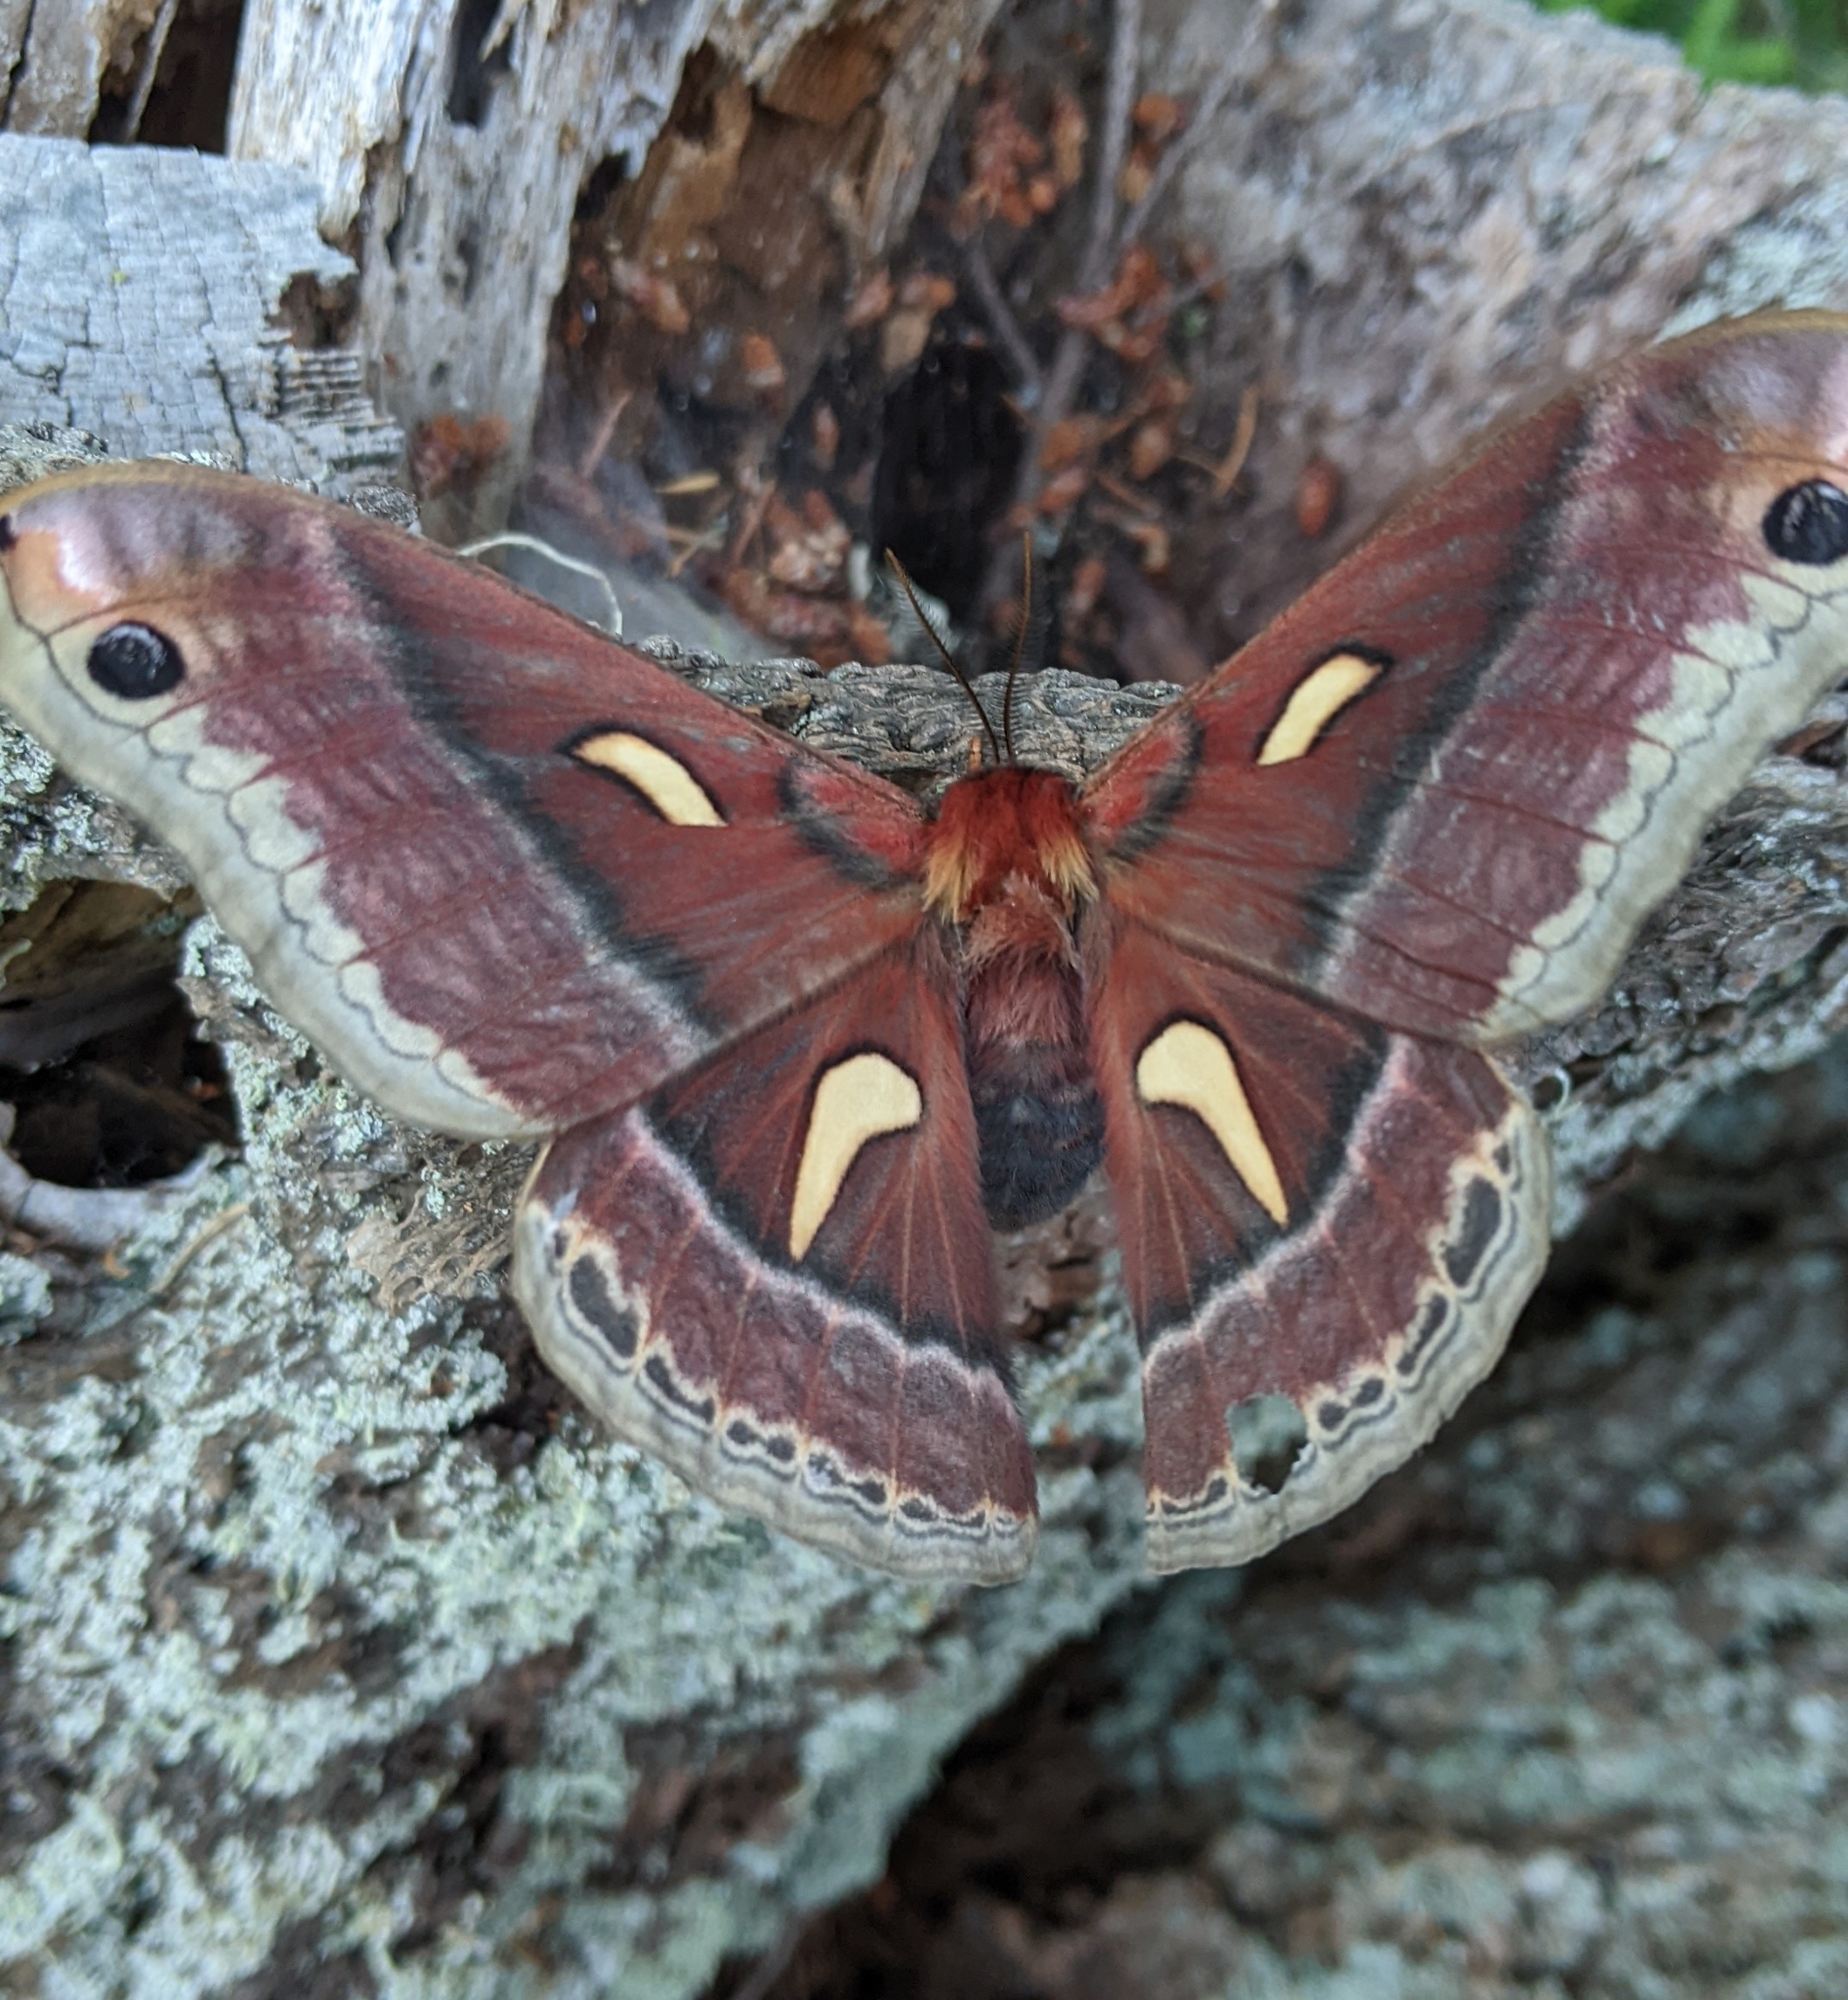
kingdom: Animalia
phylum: Arthropoda
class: Insecta
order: Lepidoptera
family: Saturniidae
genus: Hyalophora
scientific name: Hyalophora euryalus
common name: Ceanothus silkmoth
